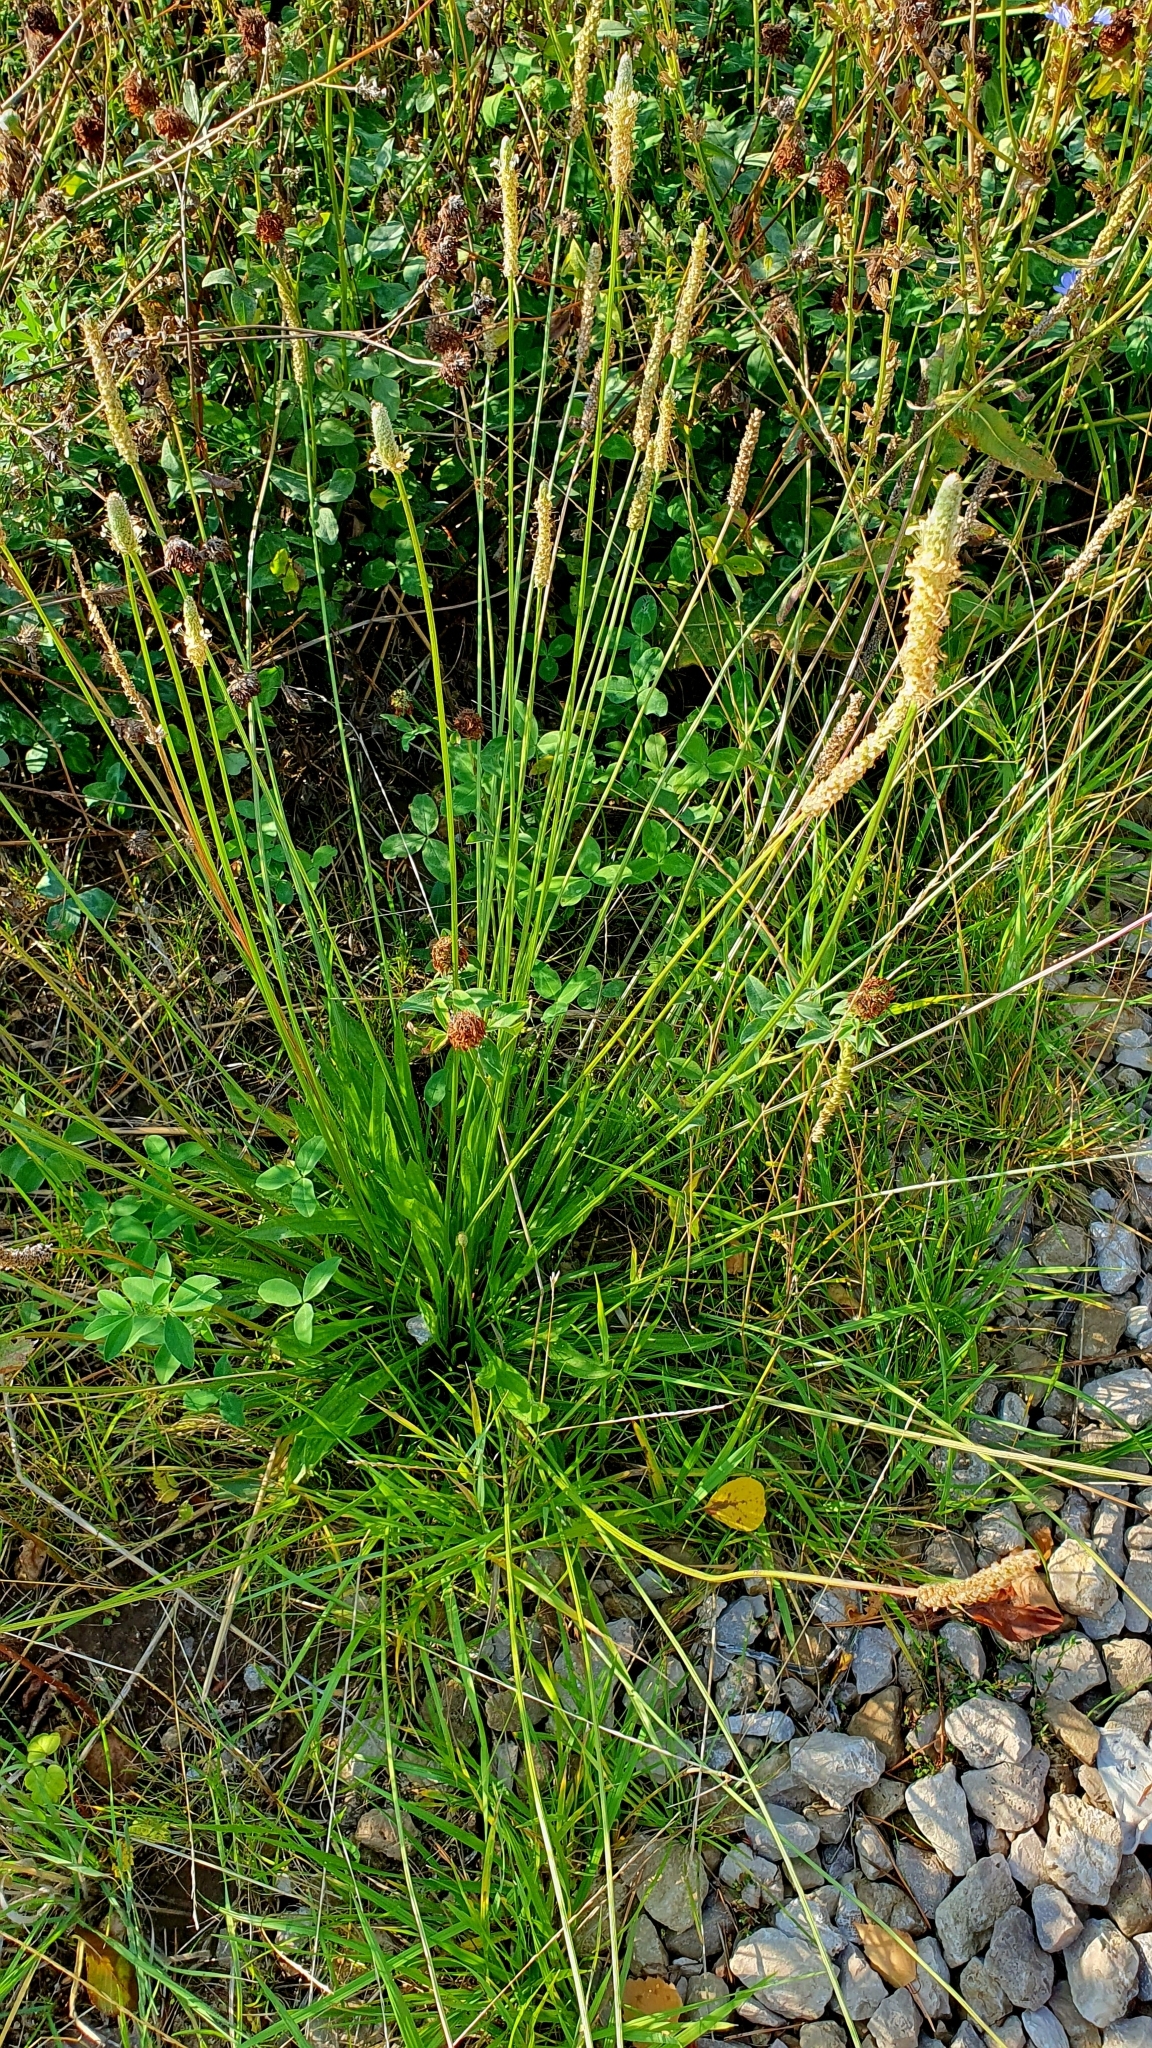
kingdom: Plantae
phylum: Tracheophyta
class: Magnoliopsida
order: Lamiales
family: Plantaginaceae
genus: Plantago
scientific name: Plantago lanceolata
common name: Ribwort plantain
